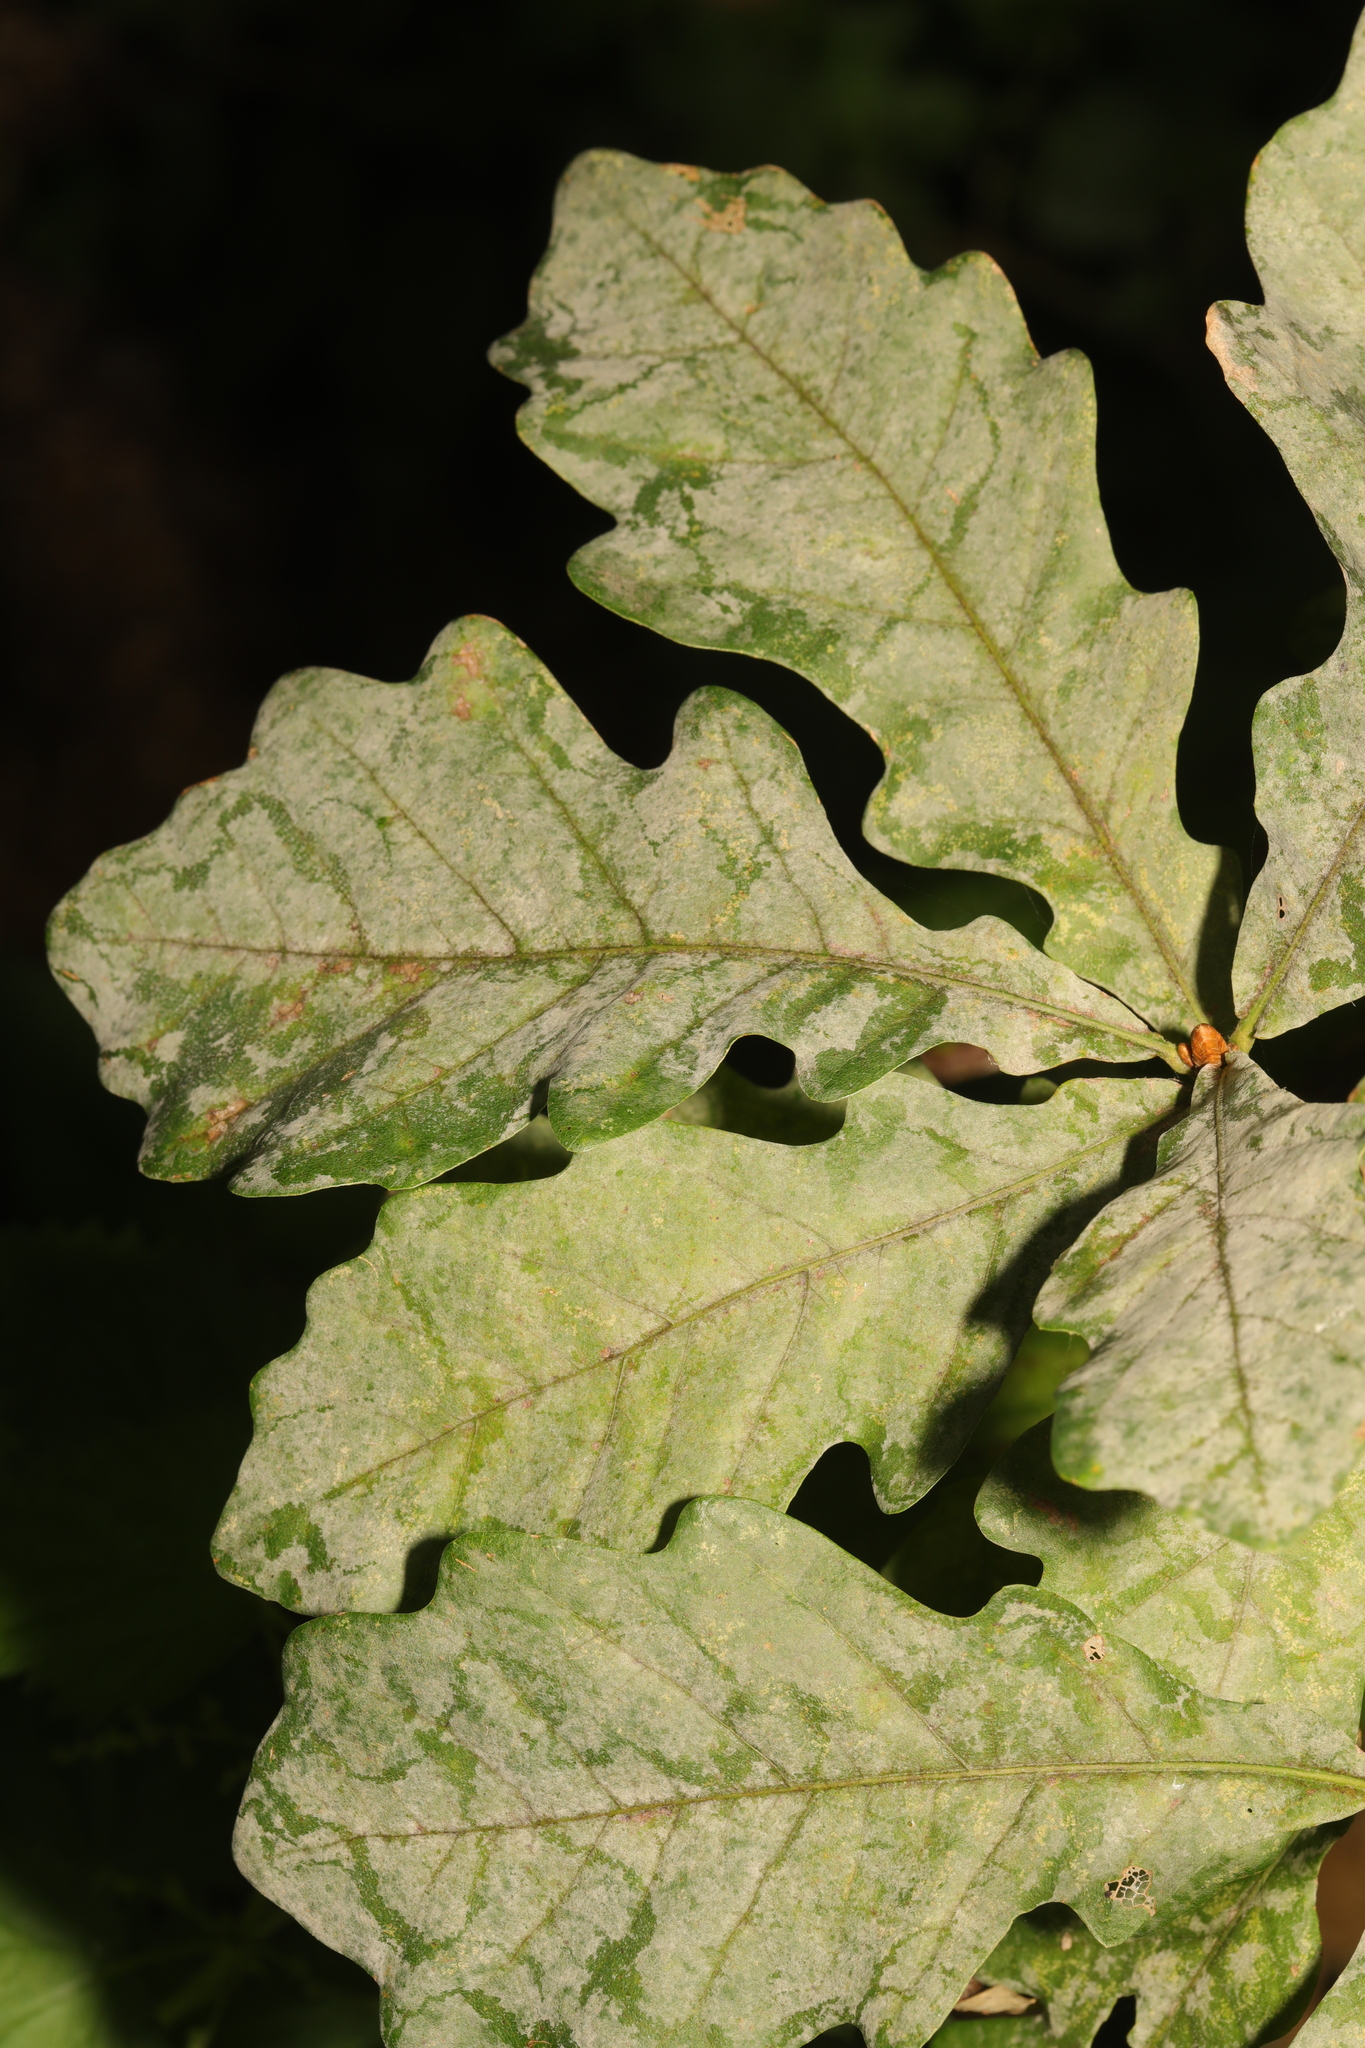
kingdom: Fungi
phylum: Ascomycota
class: Leotiomycetes
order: Helotiales
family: Erysiphaceae
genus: Erysiphe
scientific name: Erysiphe alphitoides
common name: Oak mildew
